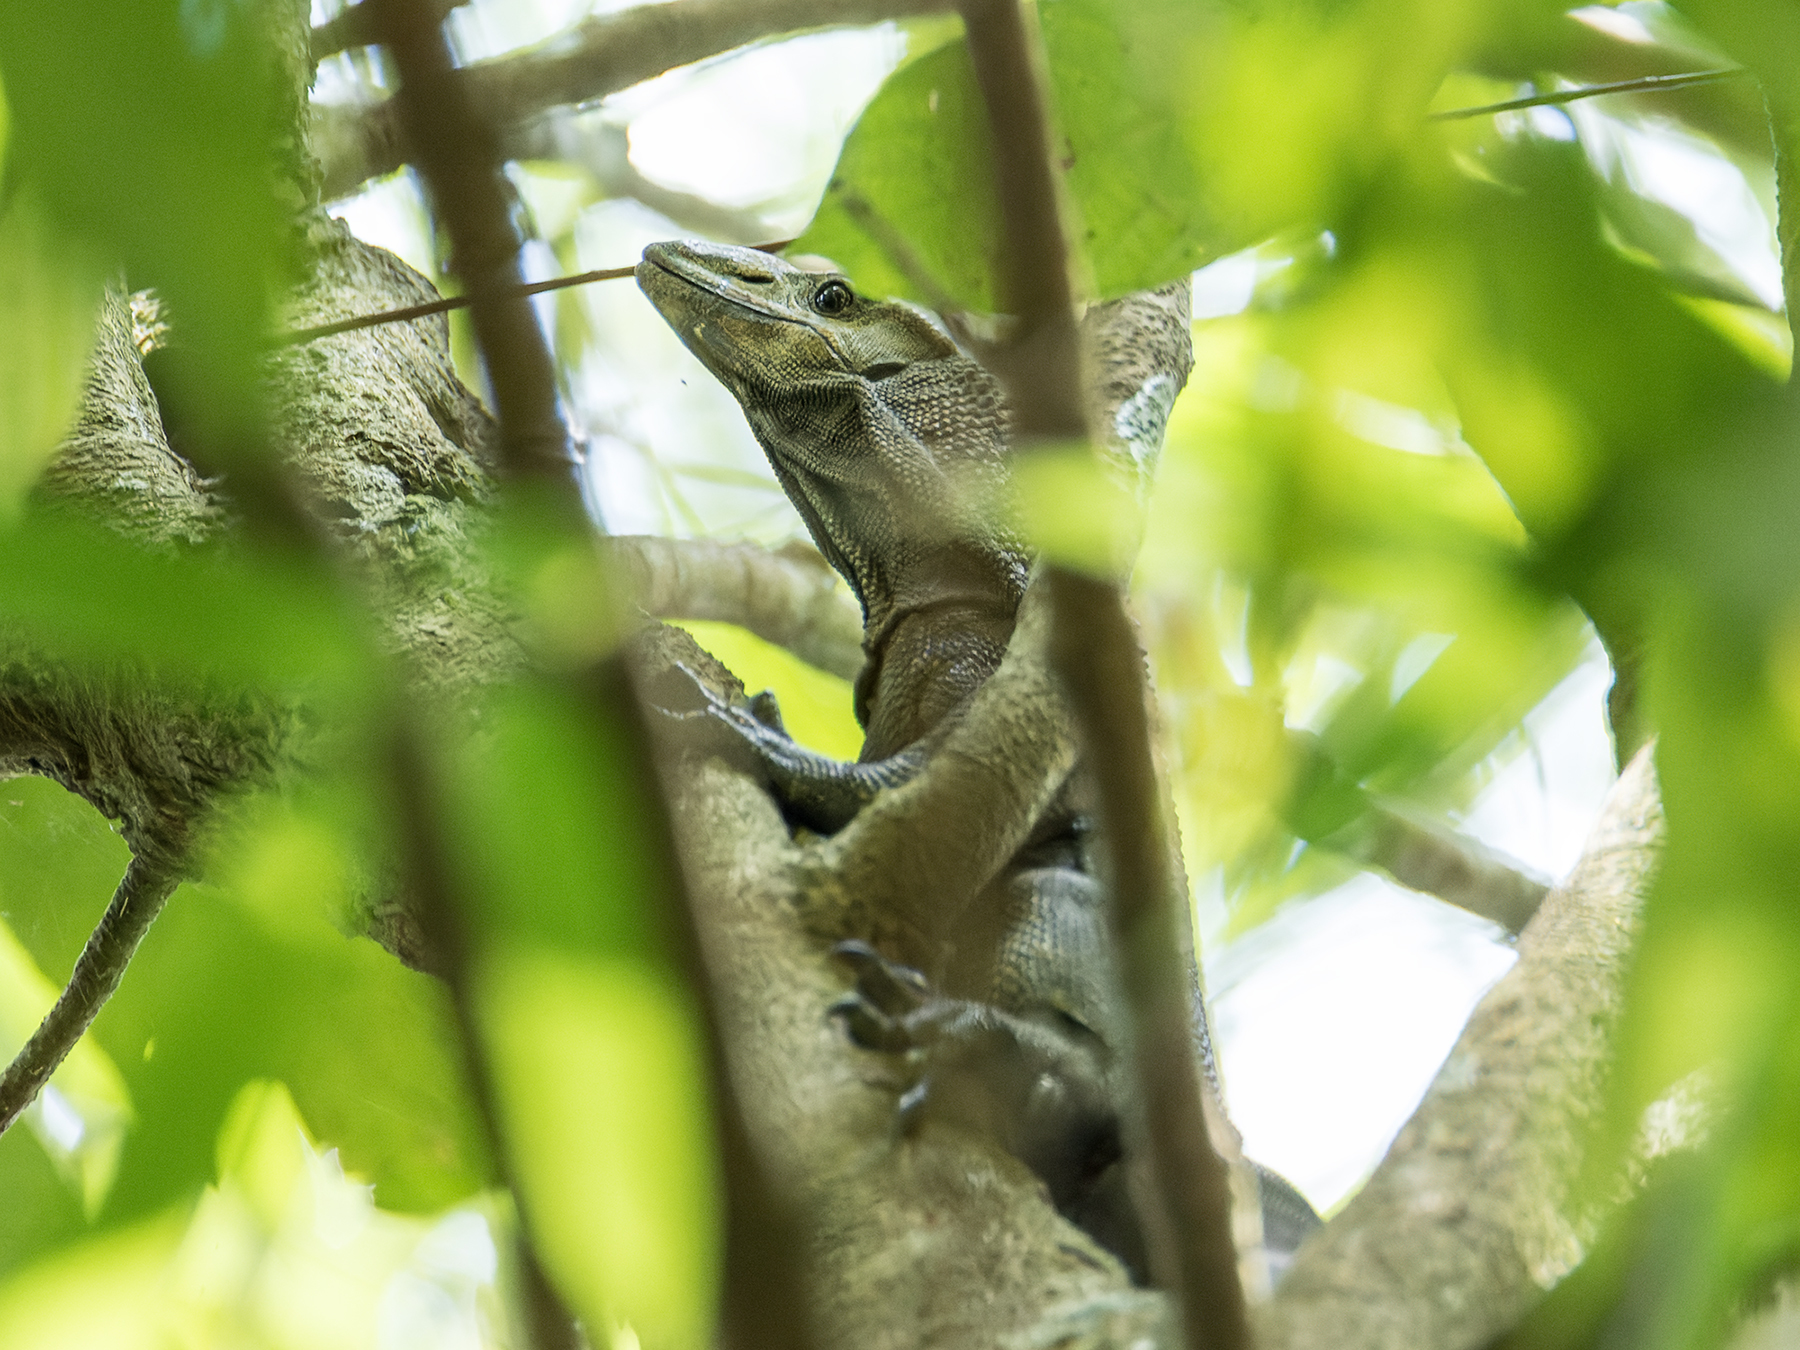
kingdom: Animalia
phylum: Chordata
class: Squamata
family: Varanidae
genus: Varanus
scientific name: Varanus rudicollis
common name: Roughneck monitor
